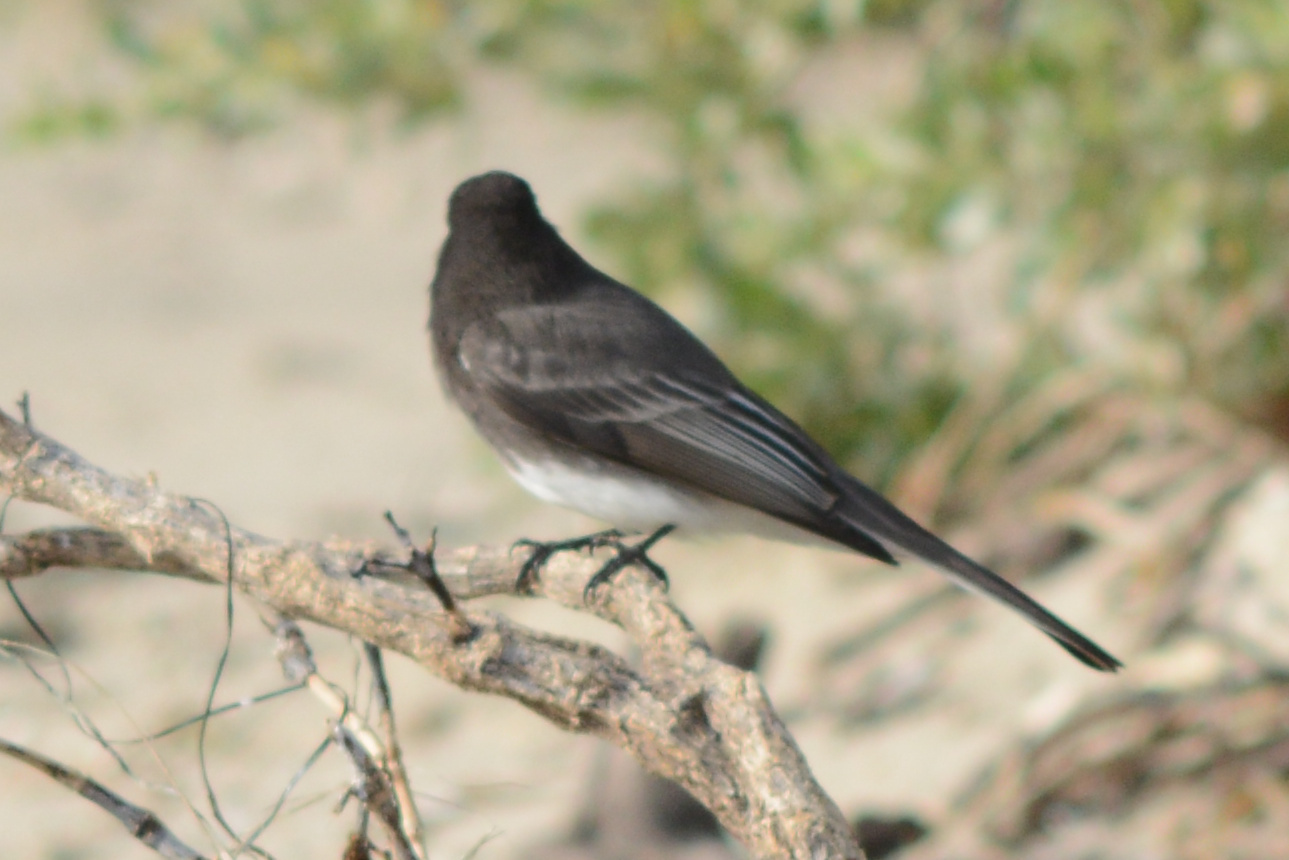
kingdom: Animalia
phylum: Chordata
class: Aves
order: Passeriformes
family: Tyrannidae
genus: Sayornis
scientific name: Sayornis nigricans
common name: Black phoebe
